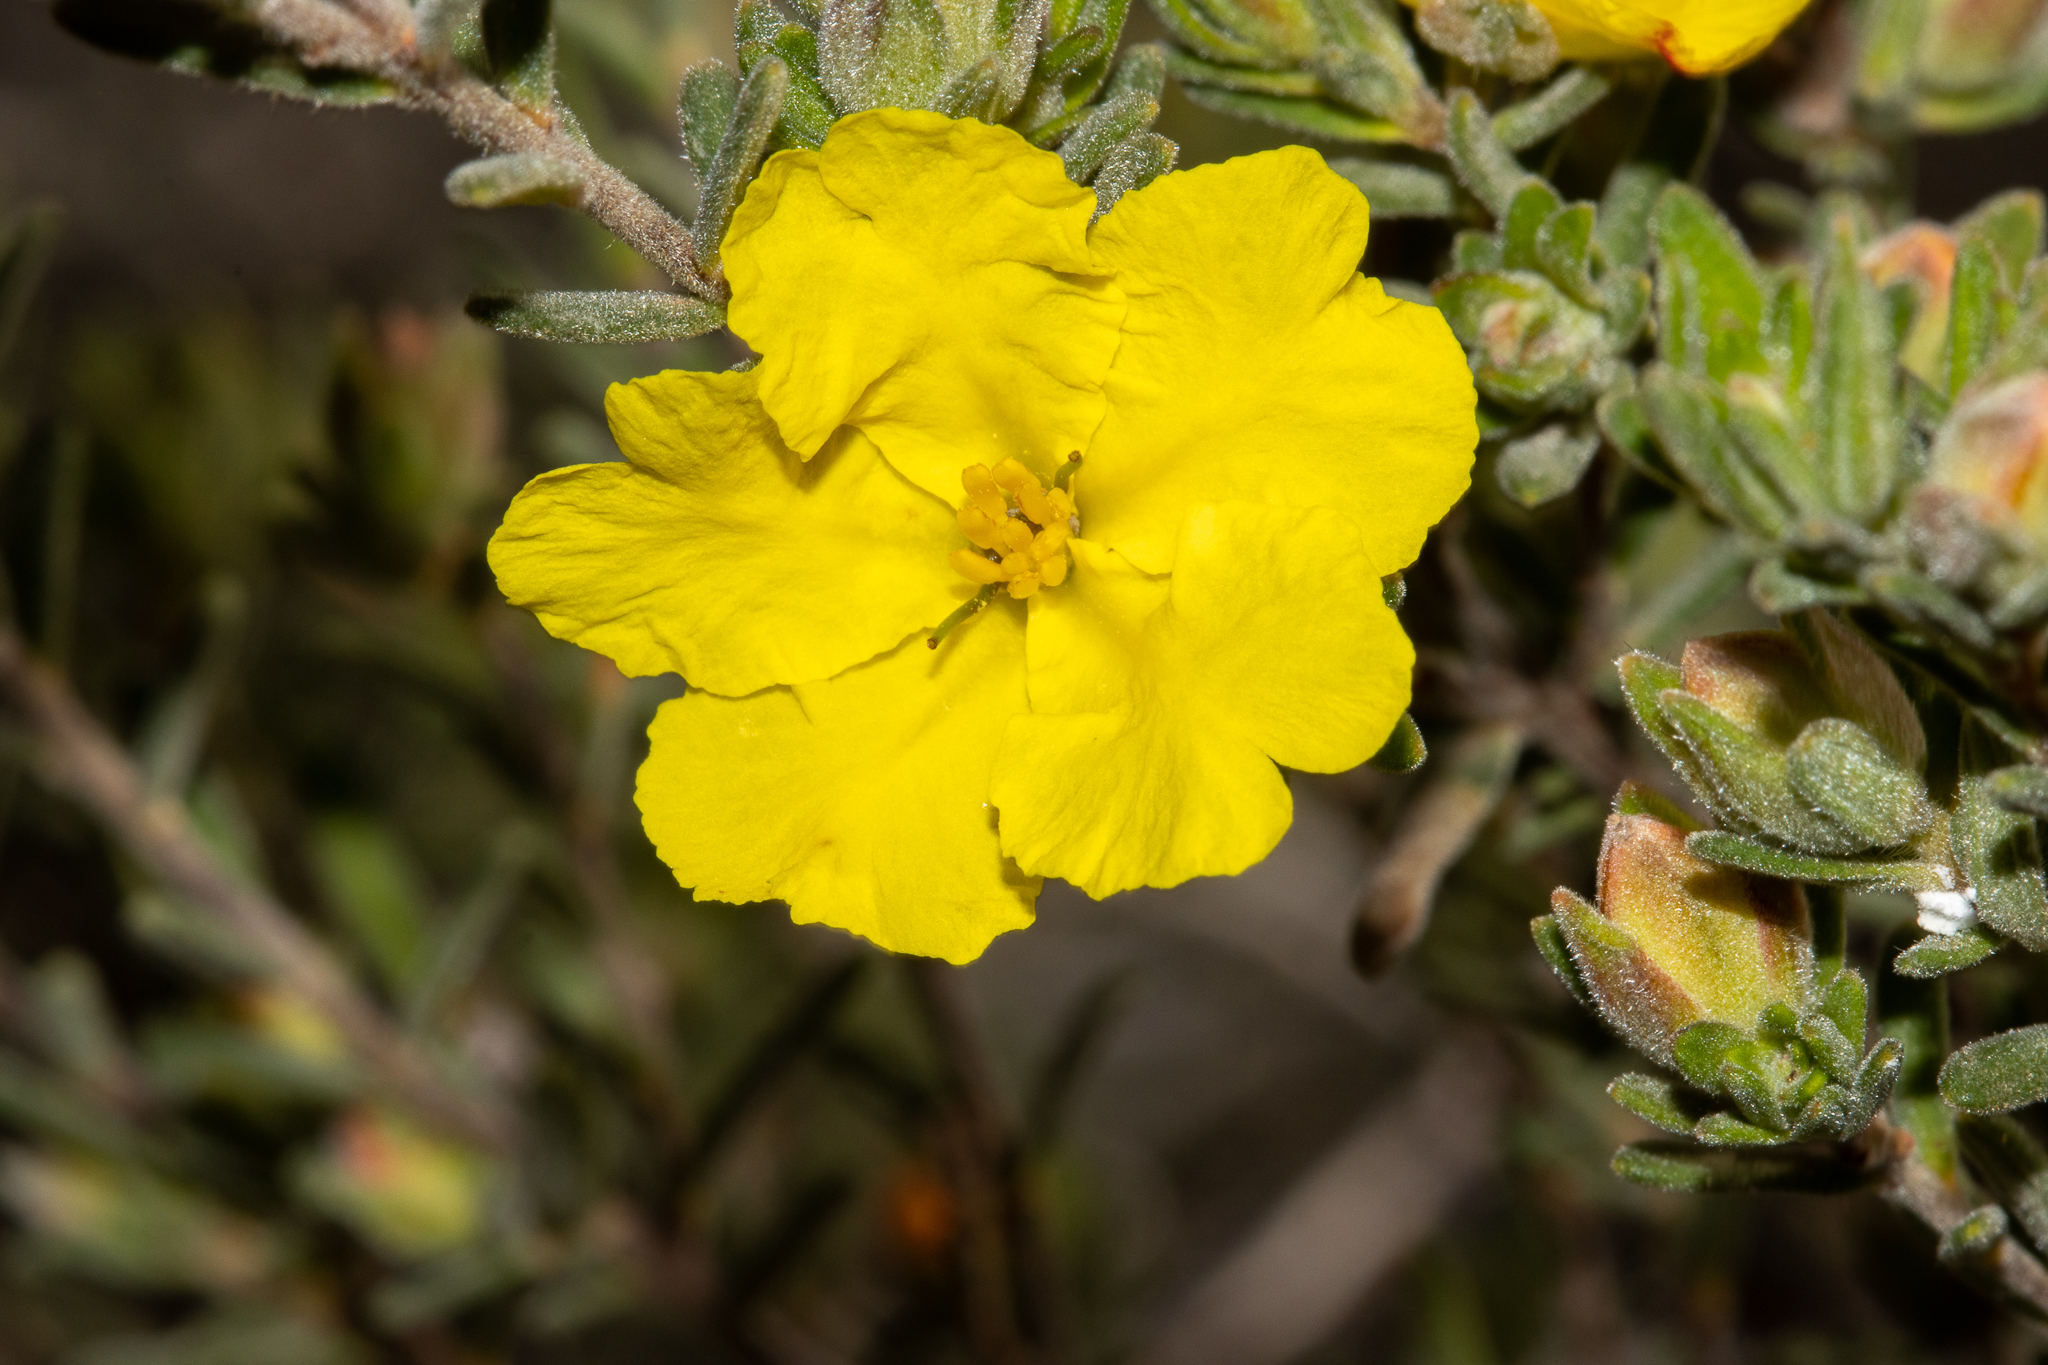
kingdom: Plantae
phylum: Tracheophyta
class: Magnoliopsida
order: Dilleniales
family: Dilleniaceae
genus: Hibbertia
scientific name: Hibbertia crinita
